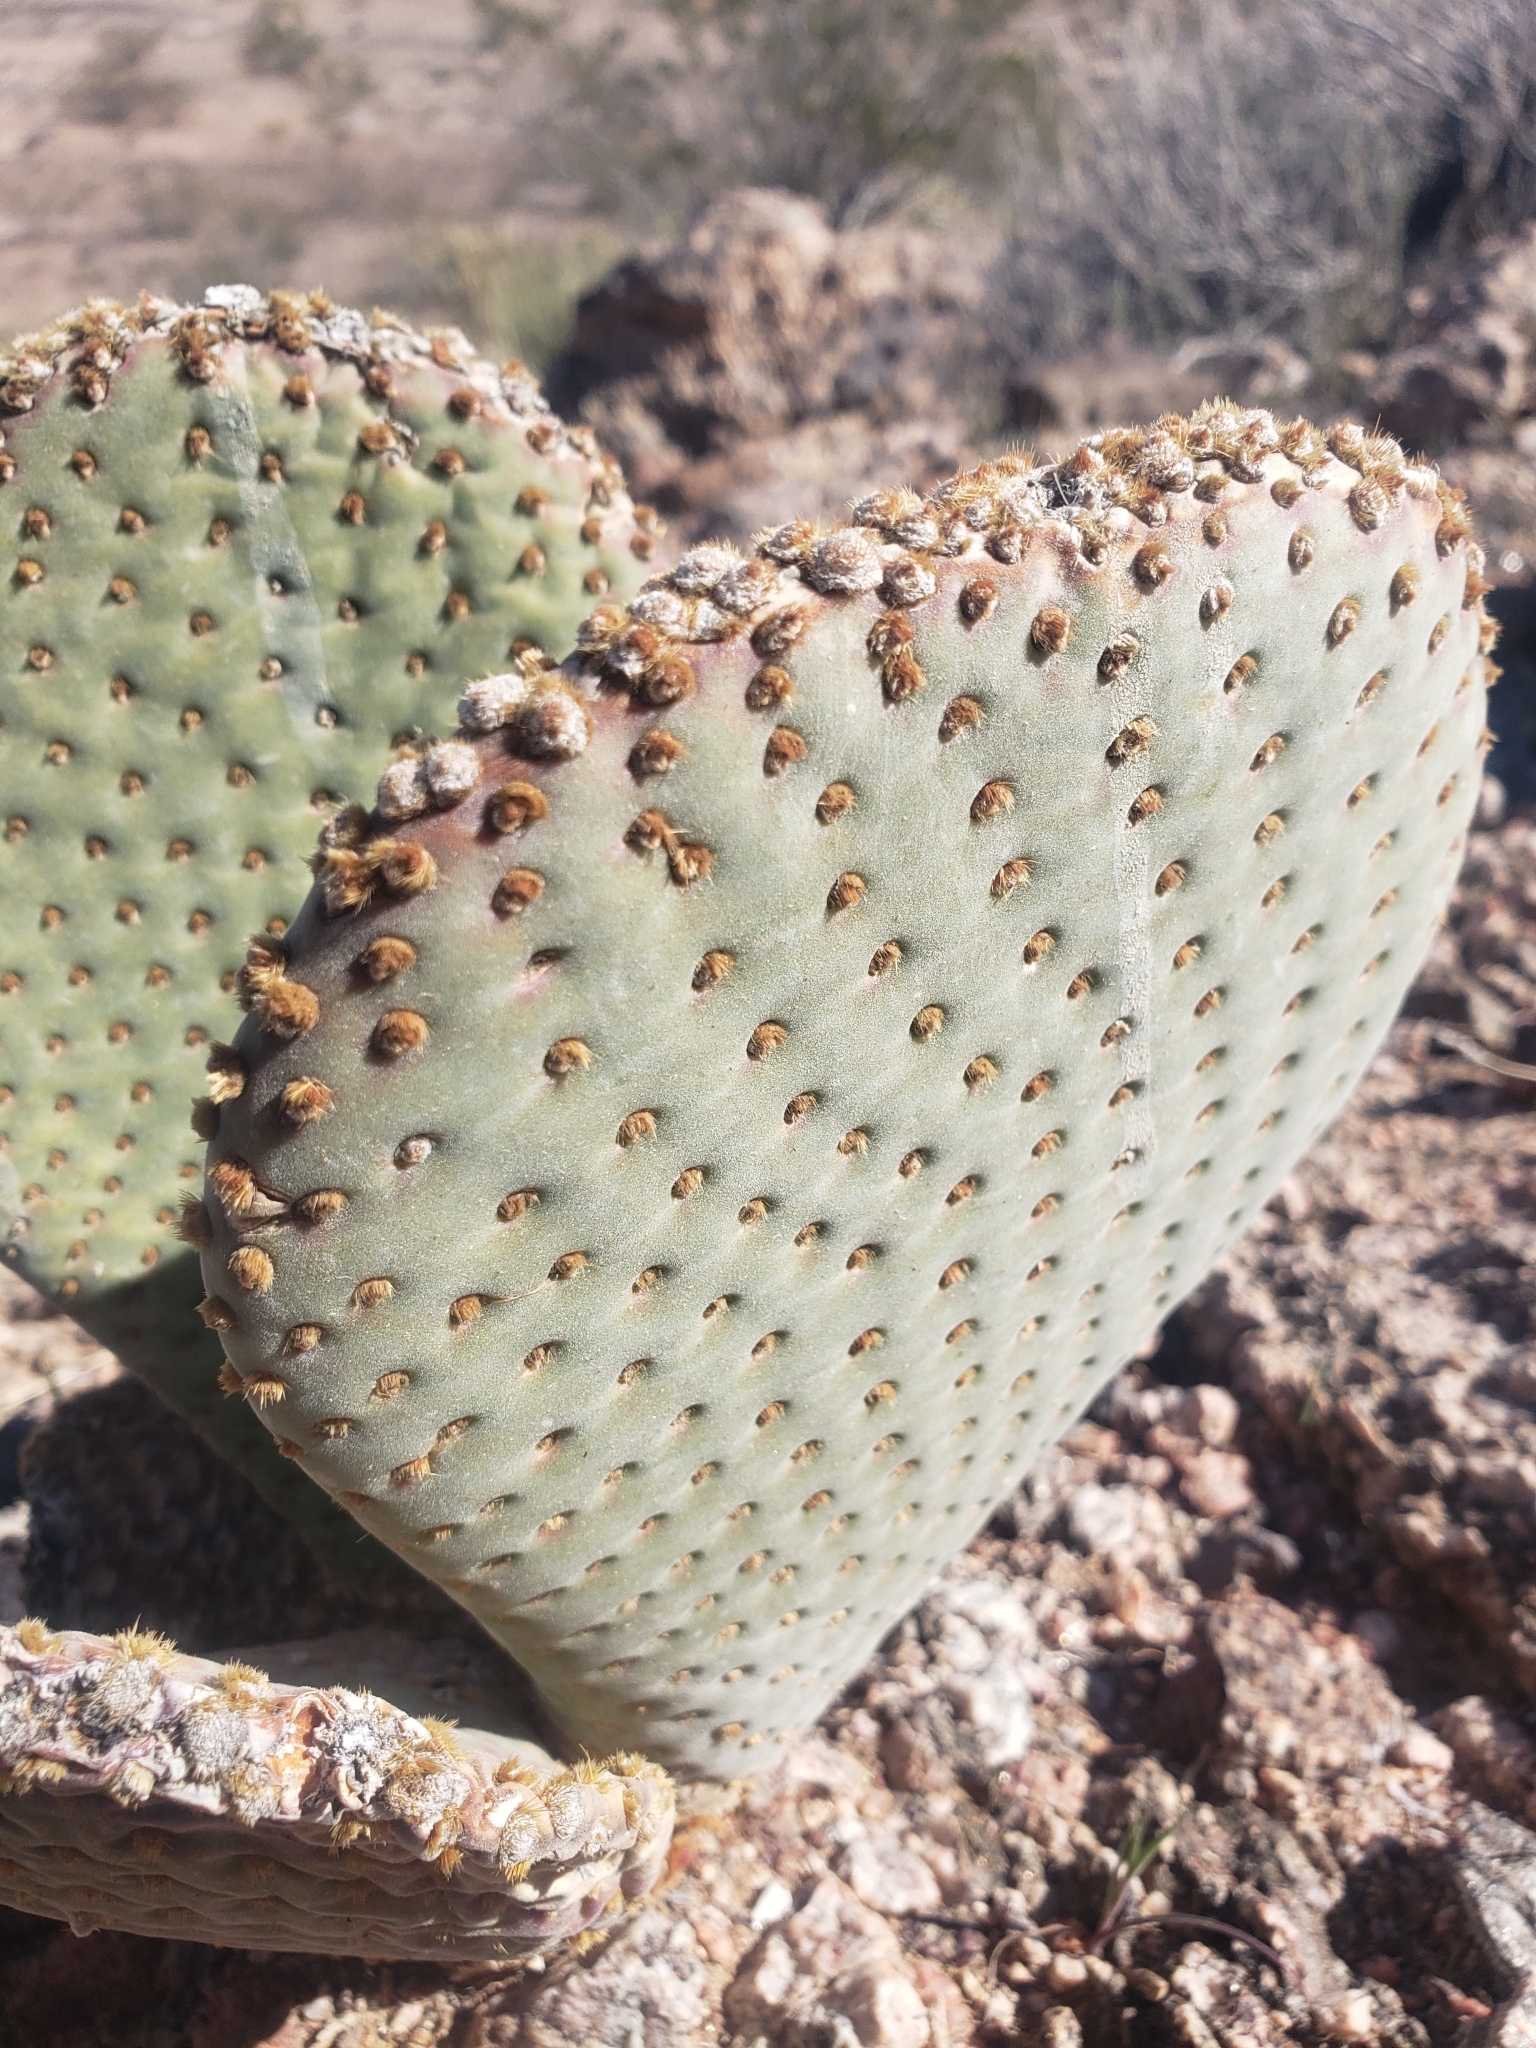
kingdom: Plantae
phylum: Tracheophyta
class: Magnoliopsida
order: Caryophyllales
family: Cactaceae
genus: Opuntia
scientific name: Opuntia basilaris
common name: Beavertail prickly-pear
